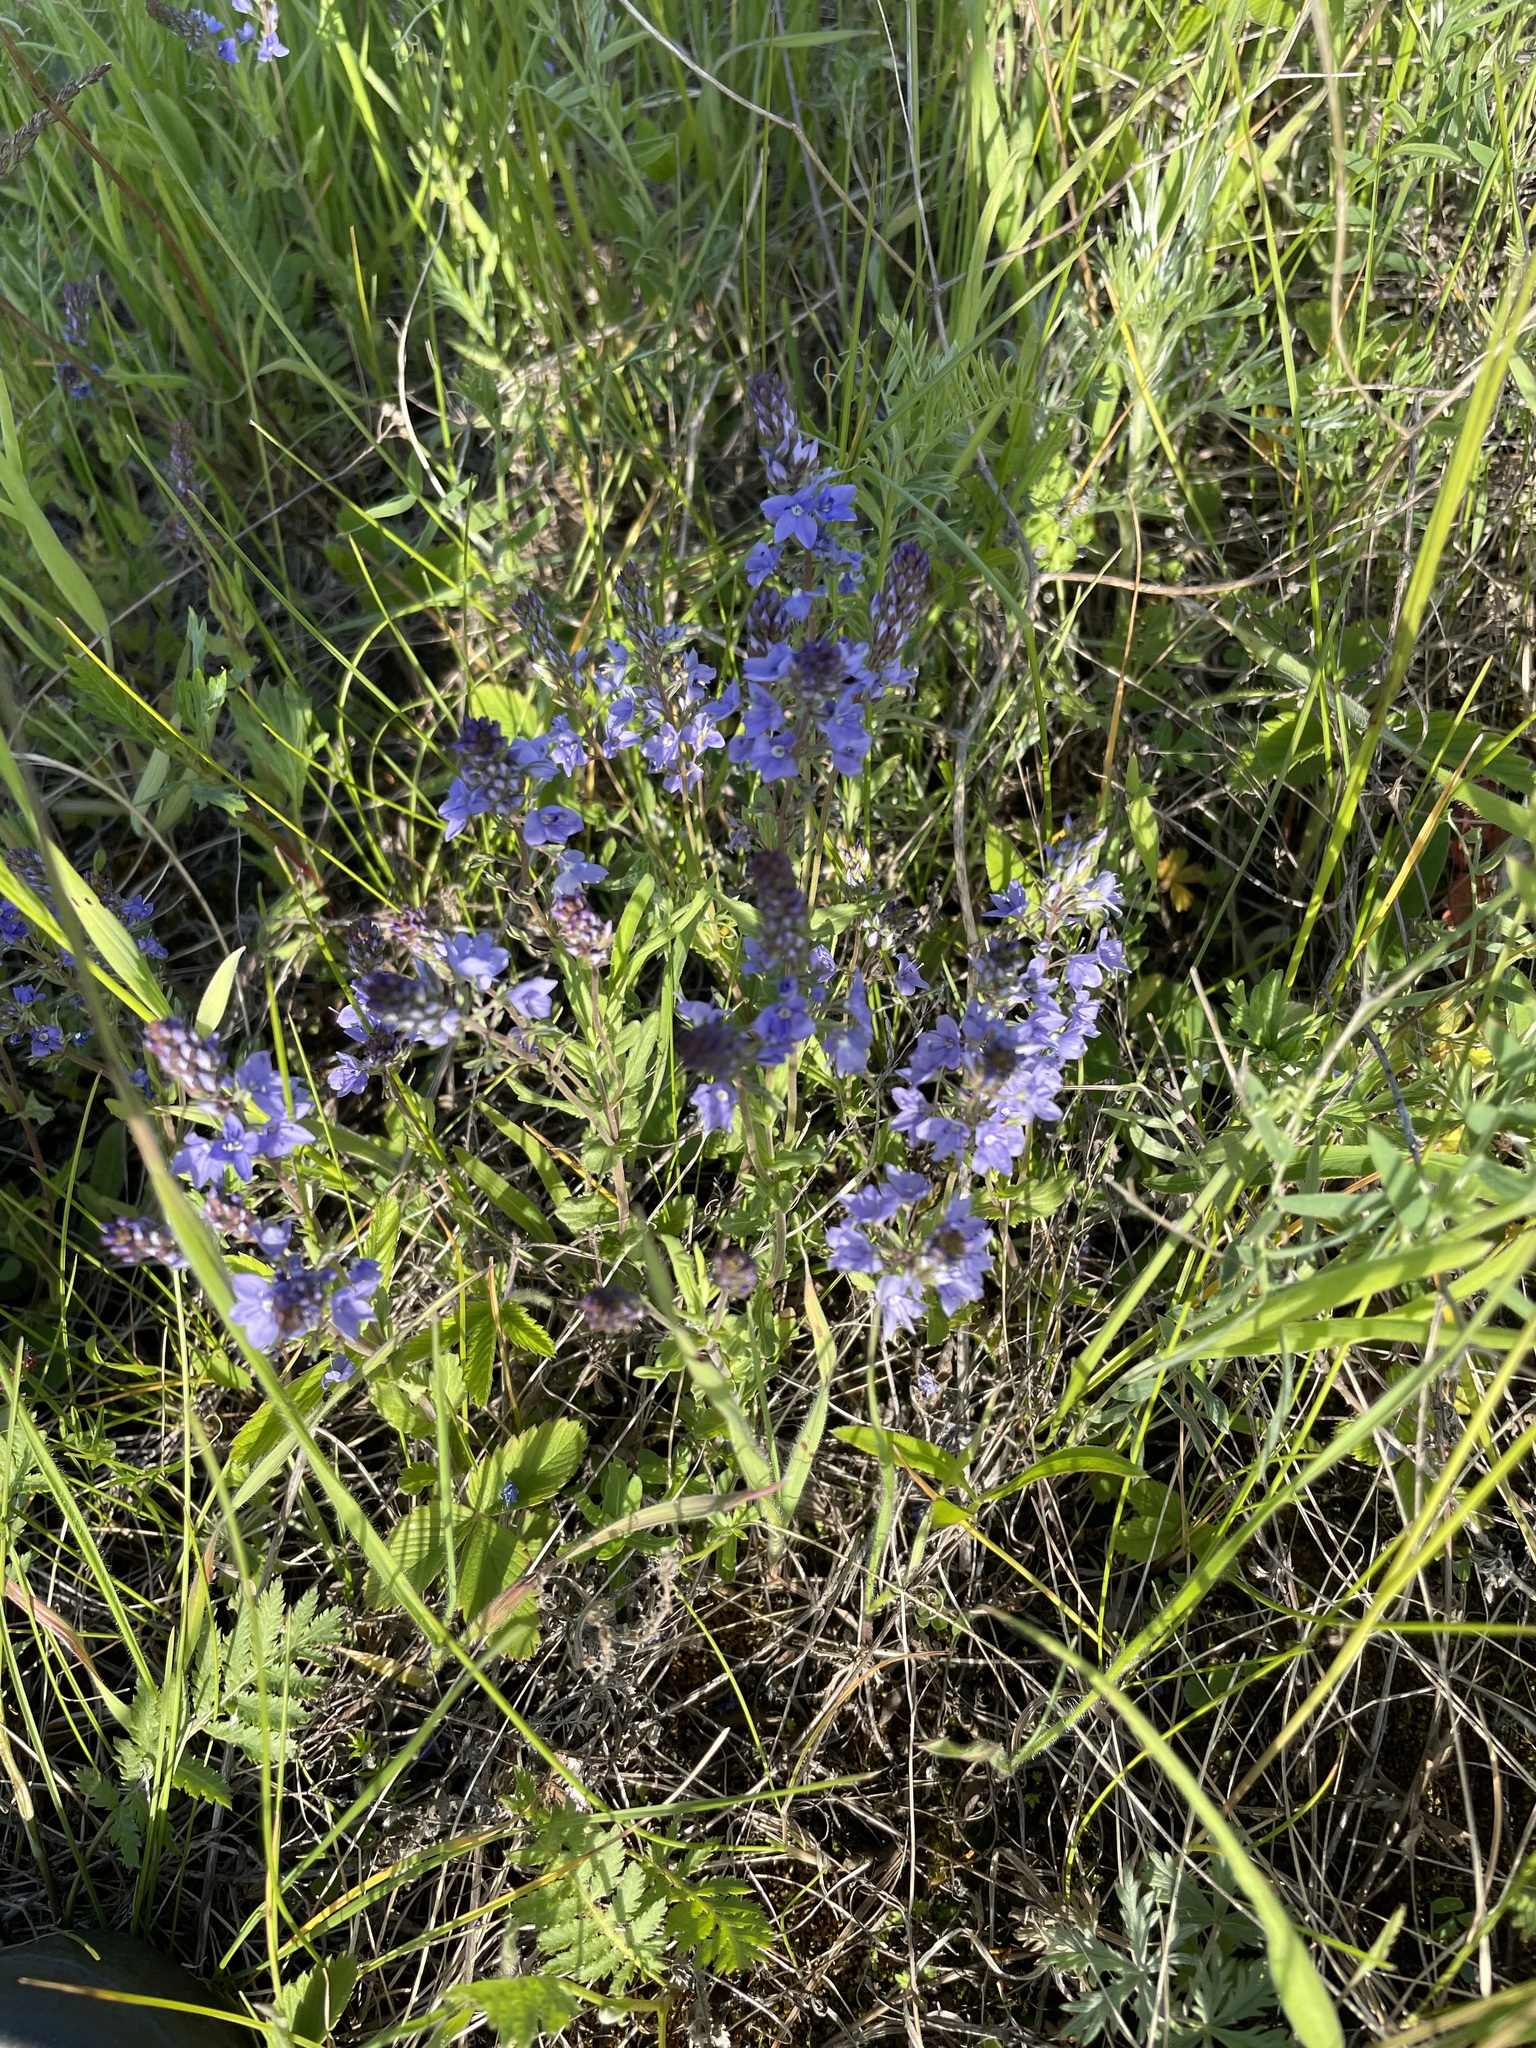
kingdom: Plantae
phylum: Tracheophyta
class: Magnoliopsida
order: Lamiales
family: Plantaginaceae
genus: Veronica
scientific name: Veronica prostrata
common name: Prostrate speedwell
